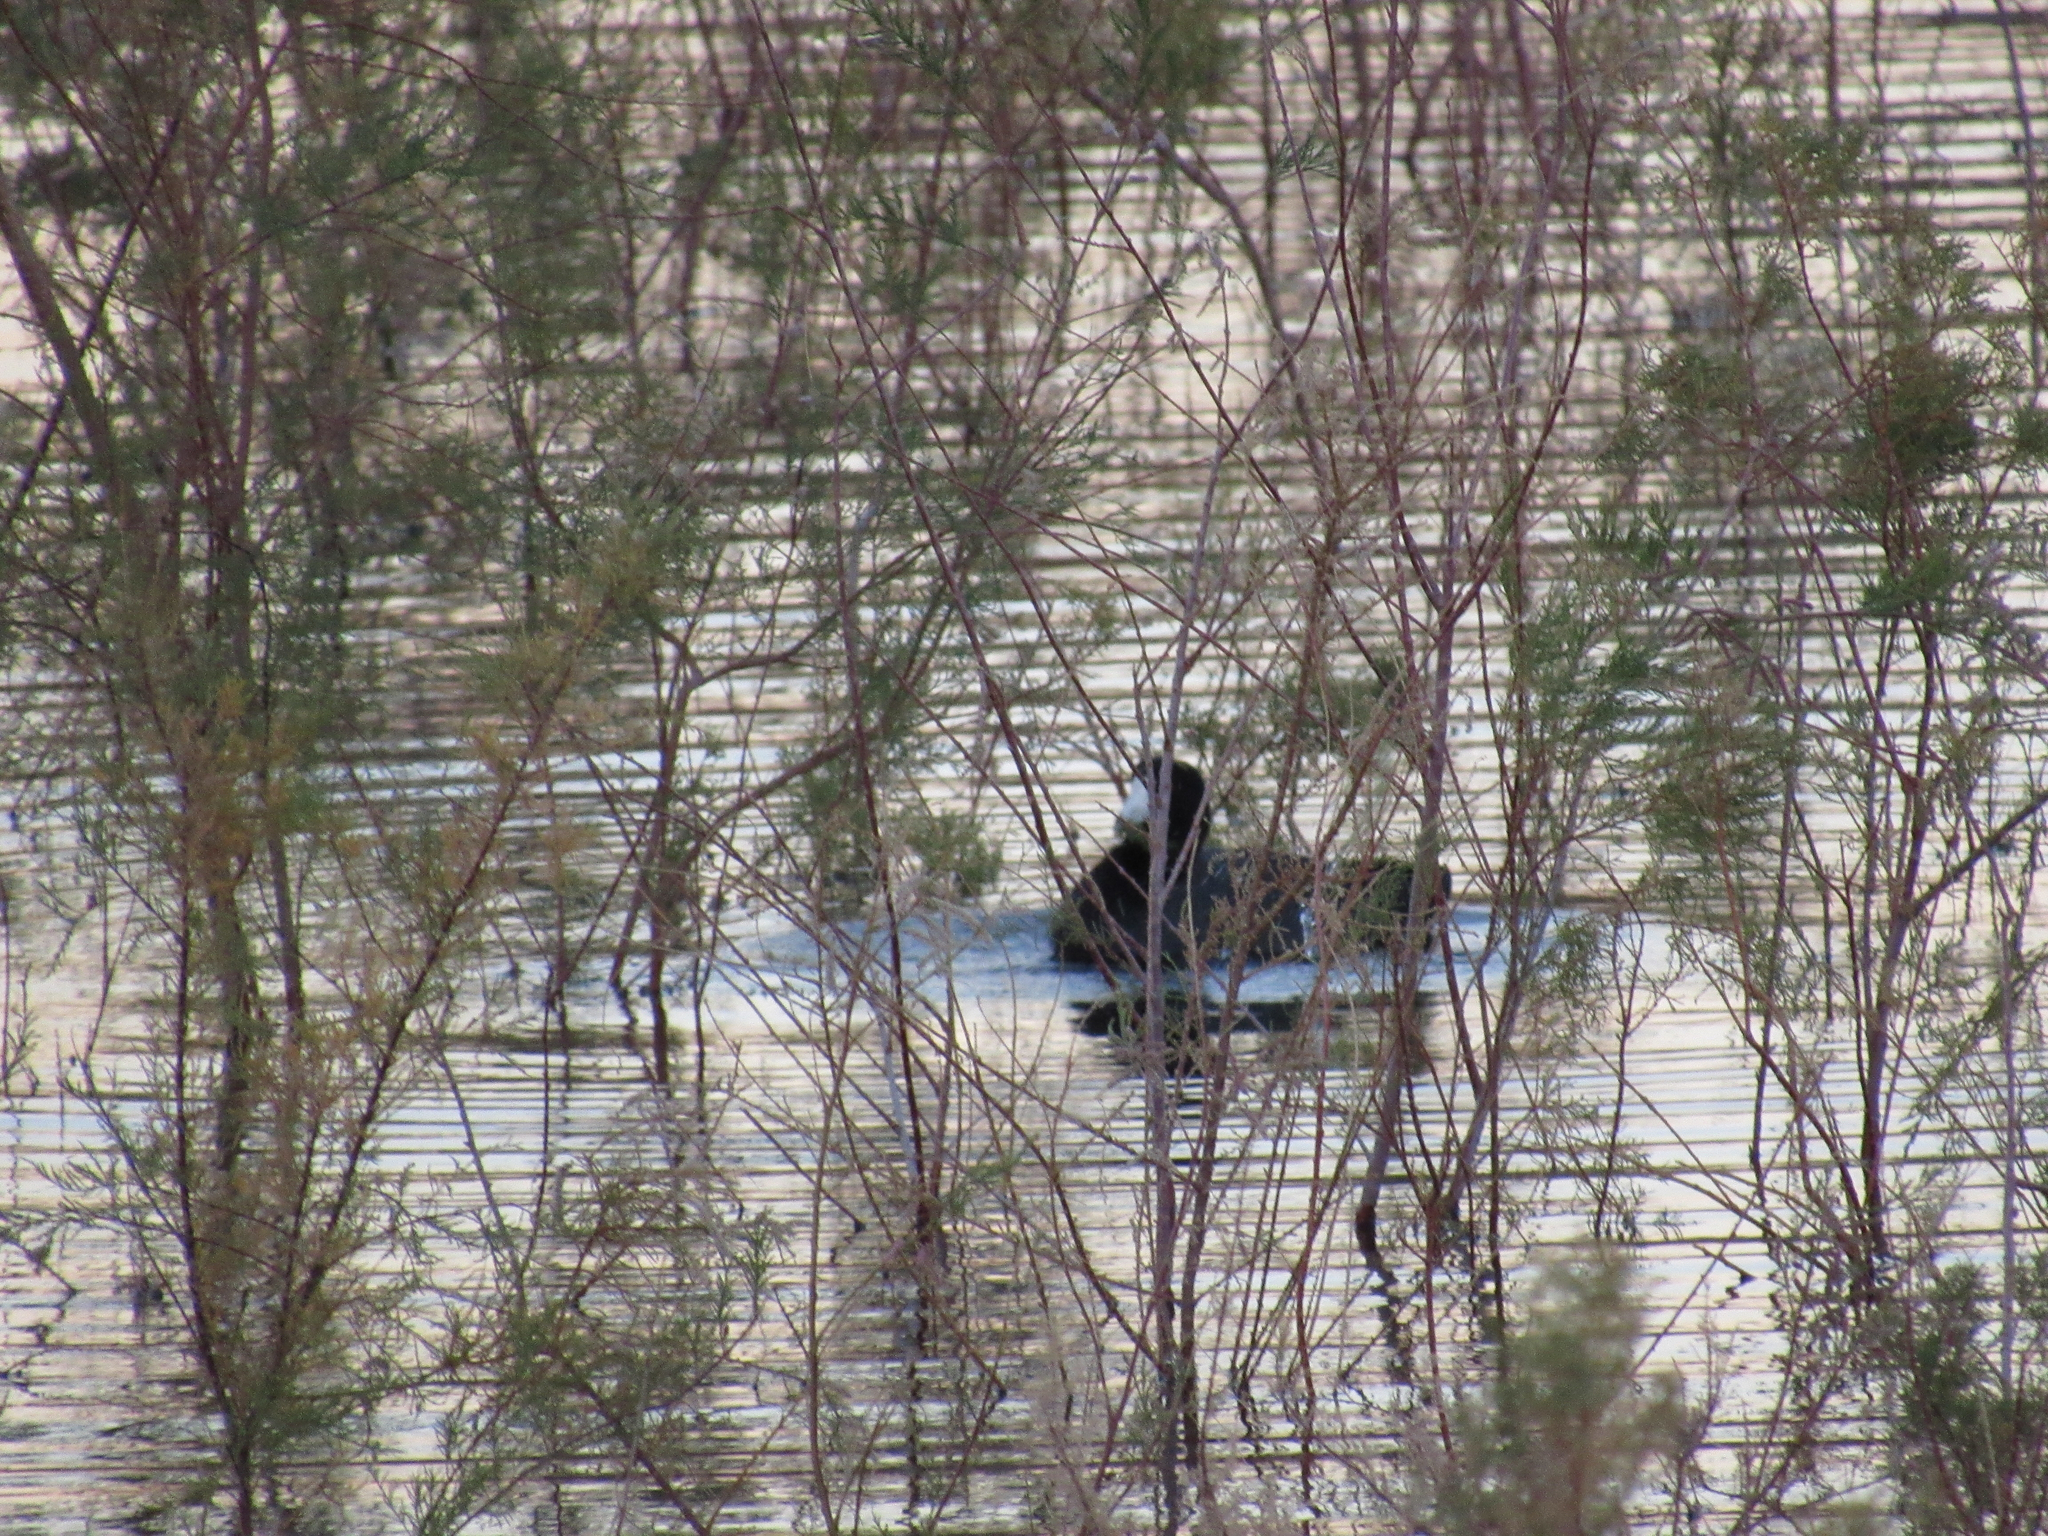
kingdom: Animalia
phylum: Chordata
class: Aves
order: Gruiformes
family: Rallidae
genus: Fulica
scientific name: Fulica americana
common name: American coot
